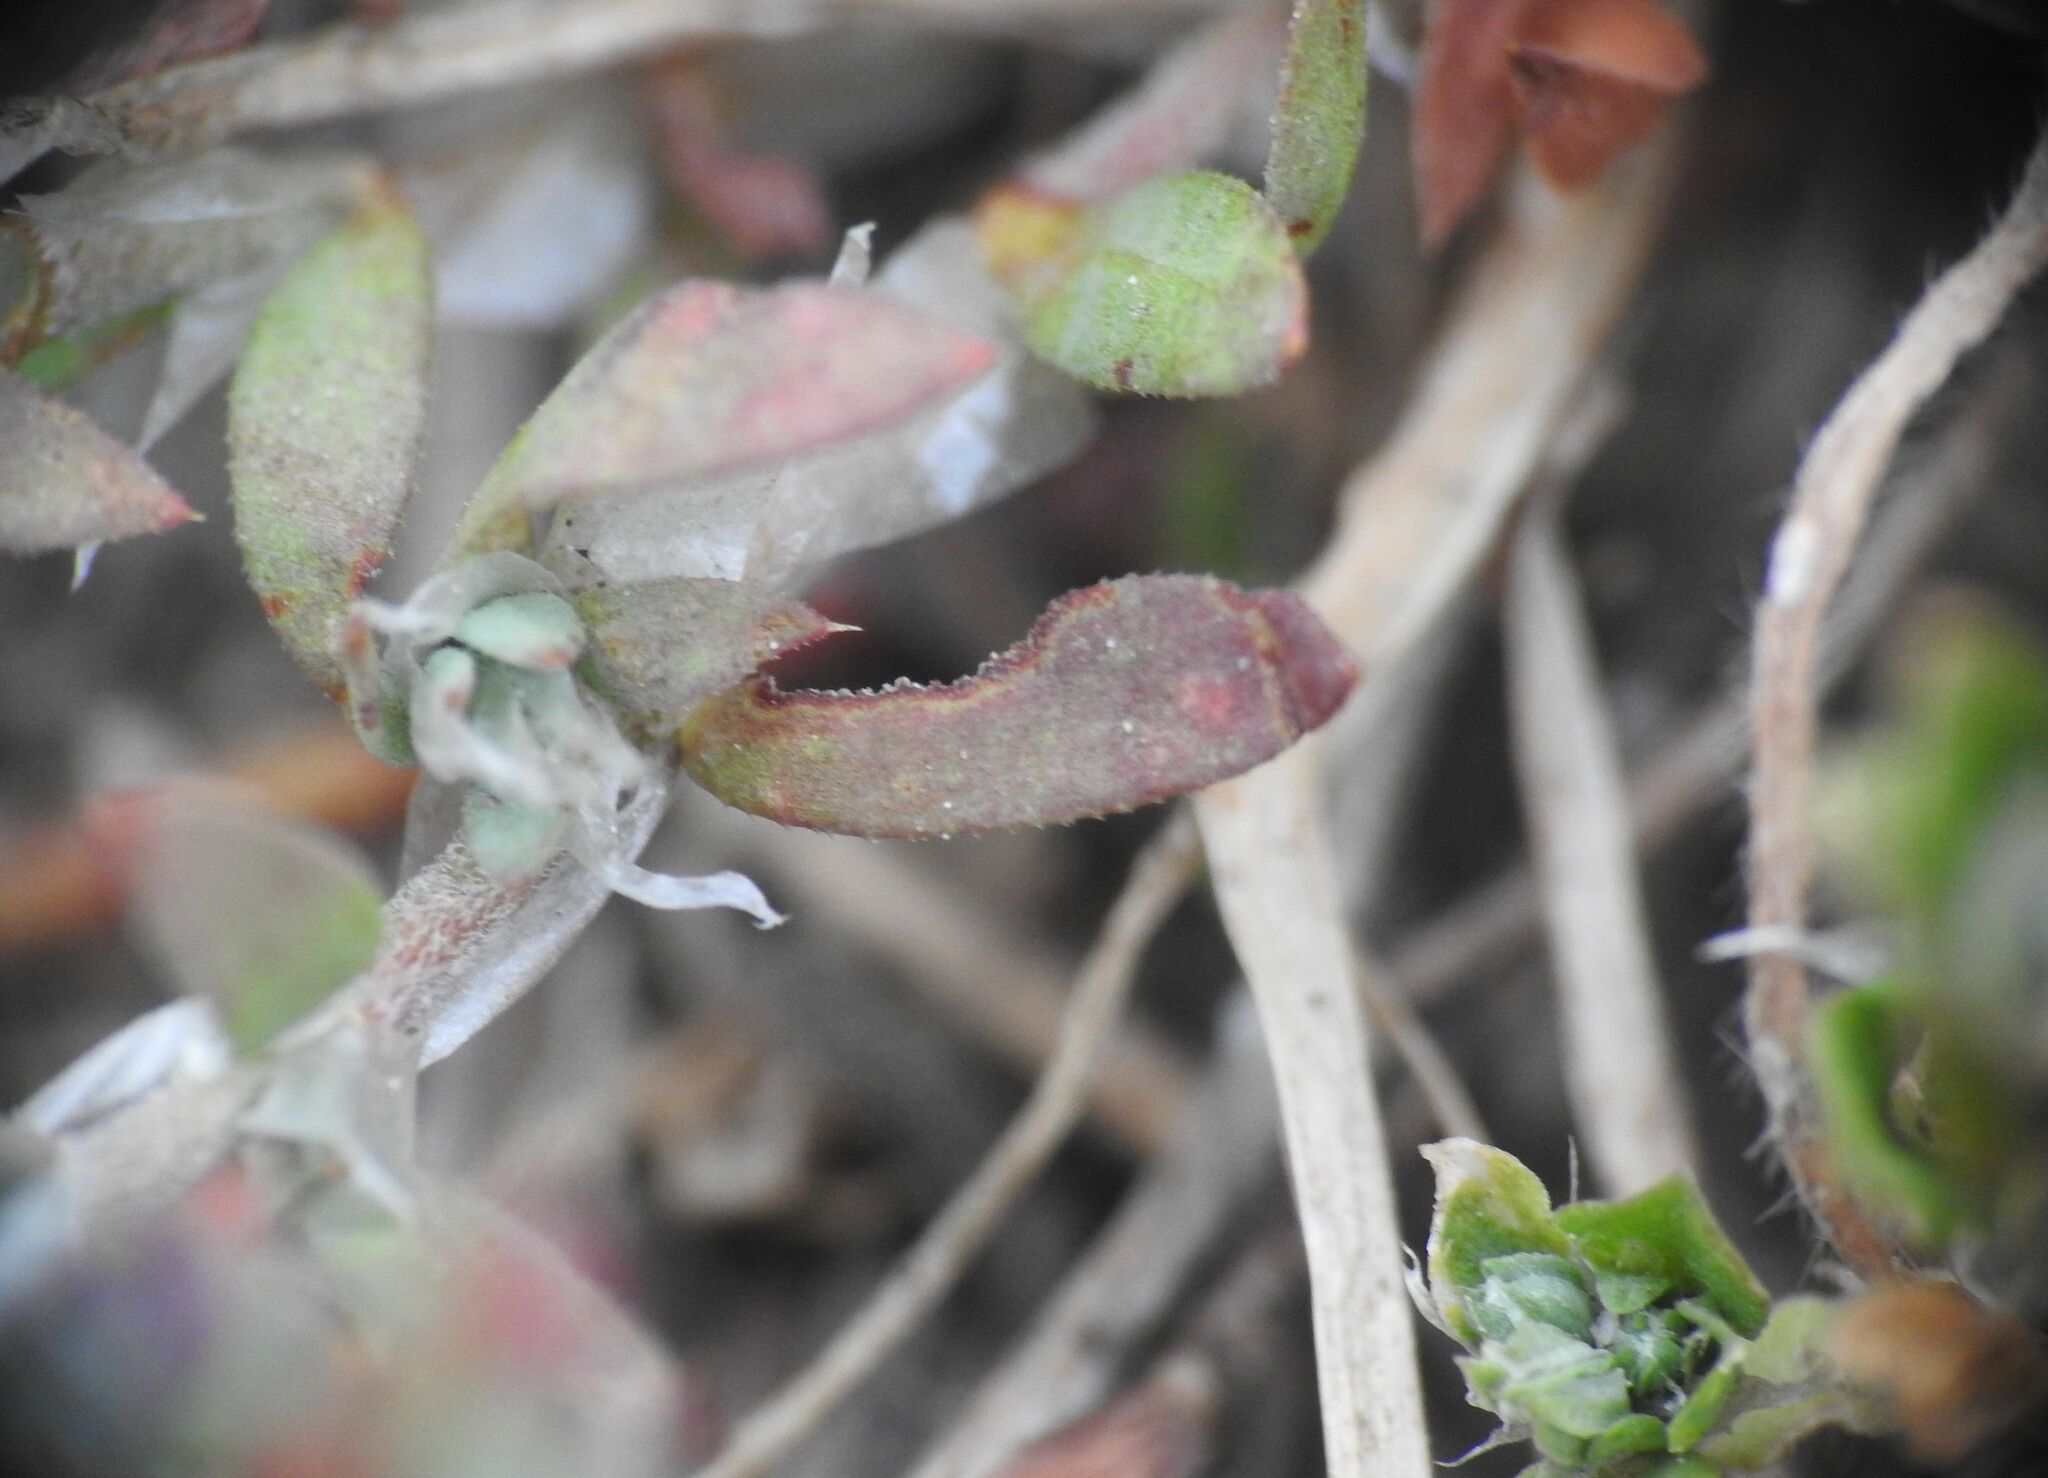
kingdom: Plantae
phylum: Tracheophyta
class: Magnoliopsida
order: Caryophyllales
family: Caryophyllaceae
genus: Paronychia
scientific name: Paronychia argentea
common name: Silver nailroot
